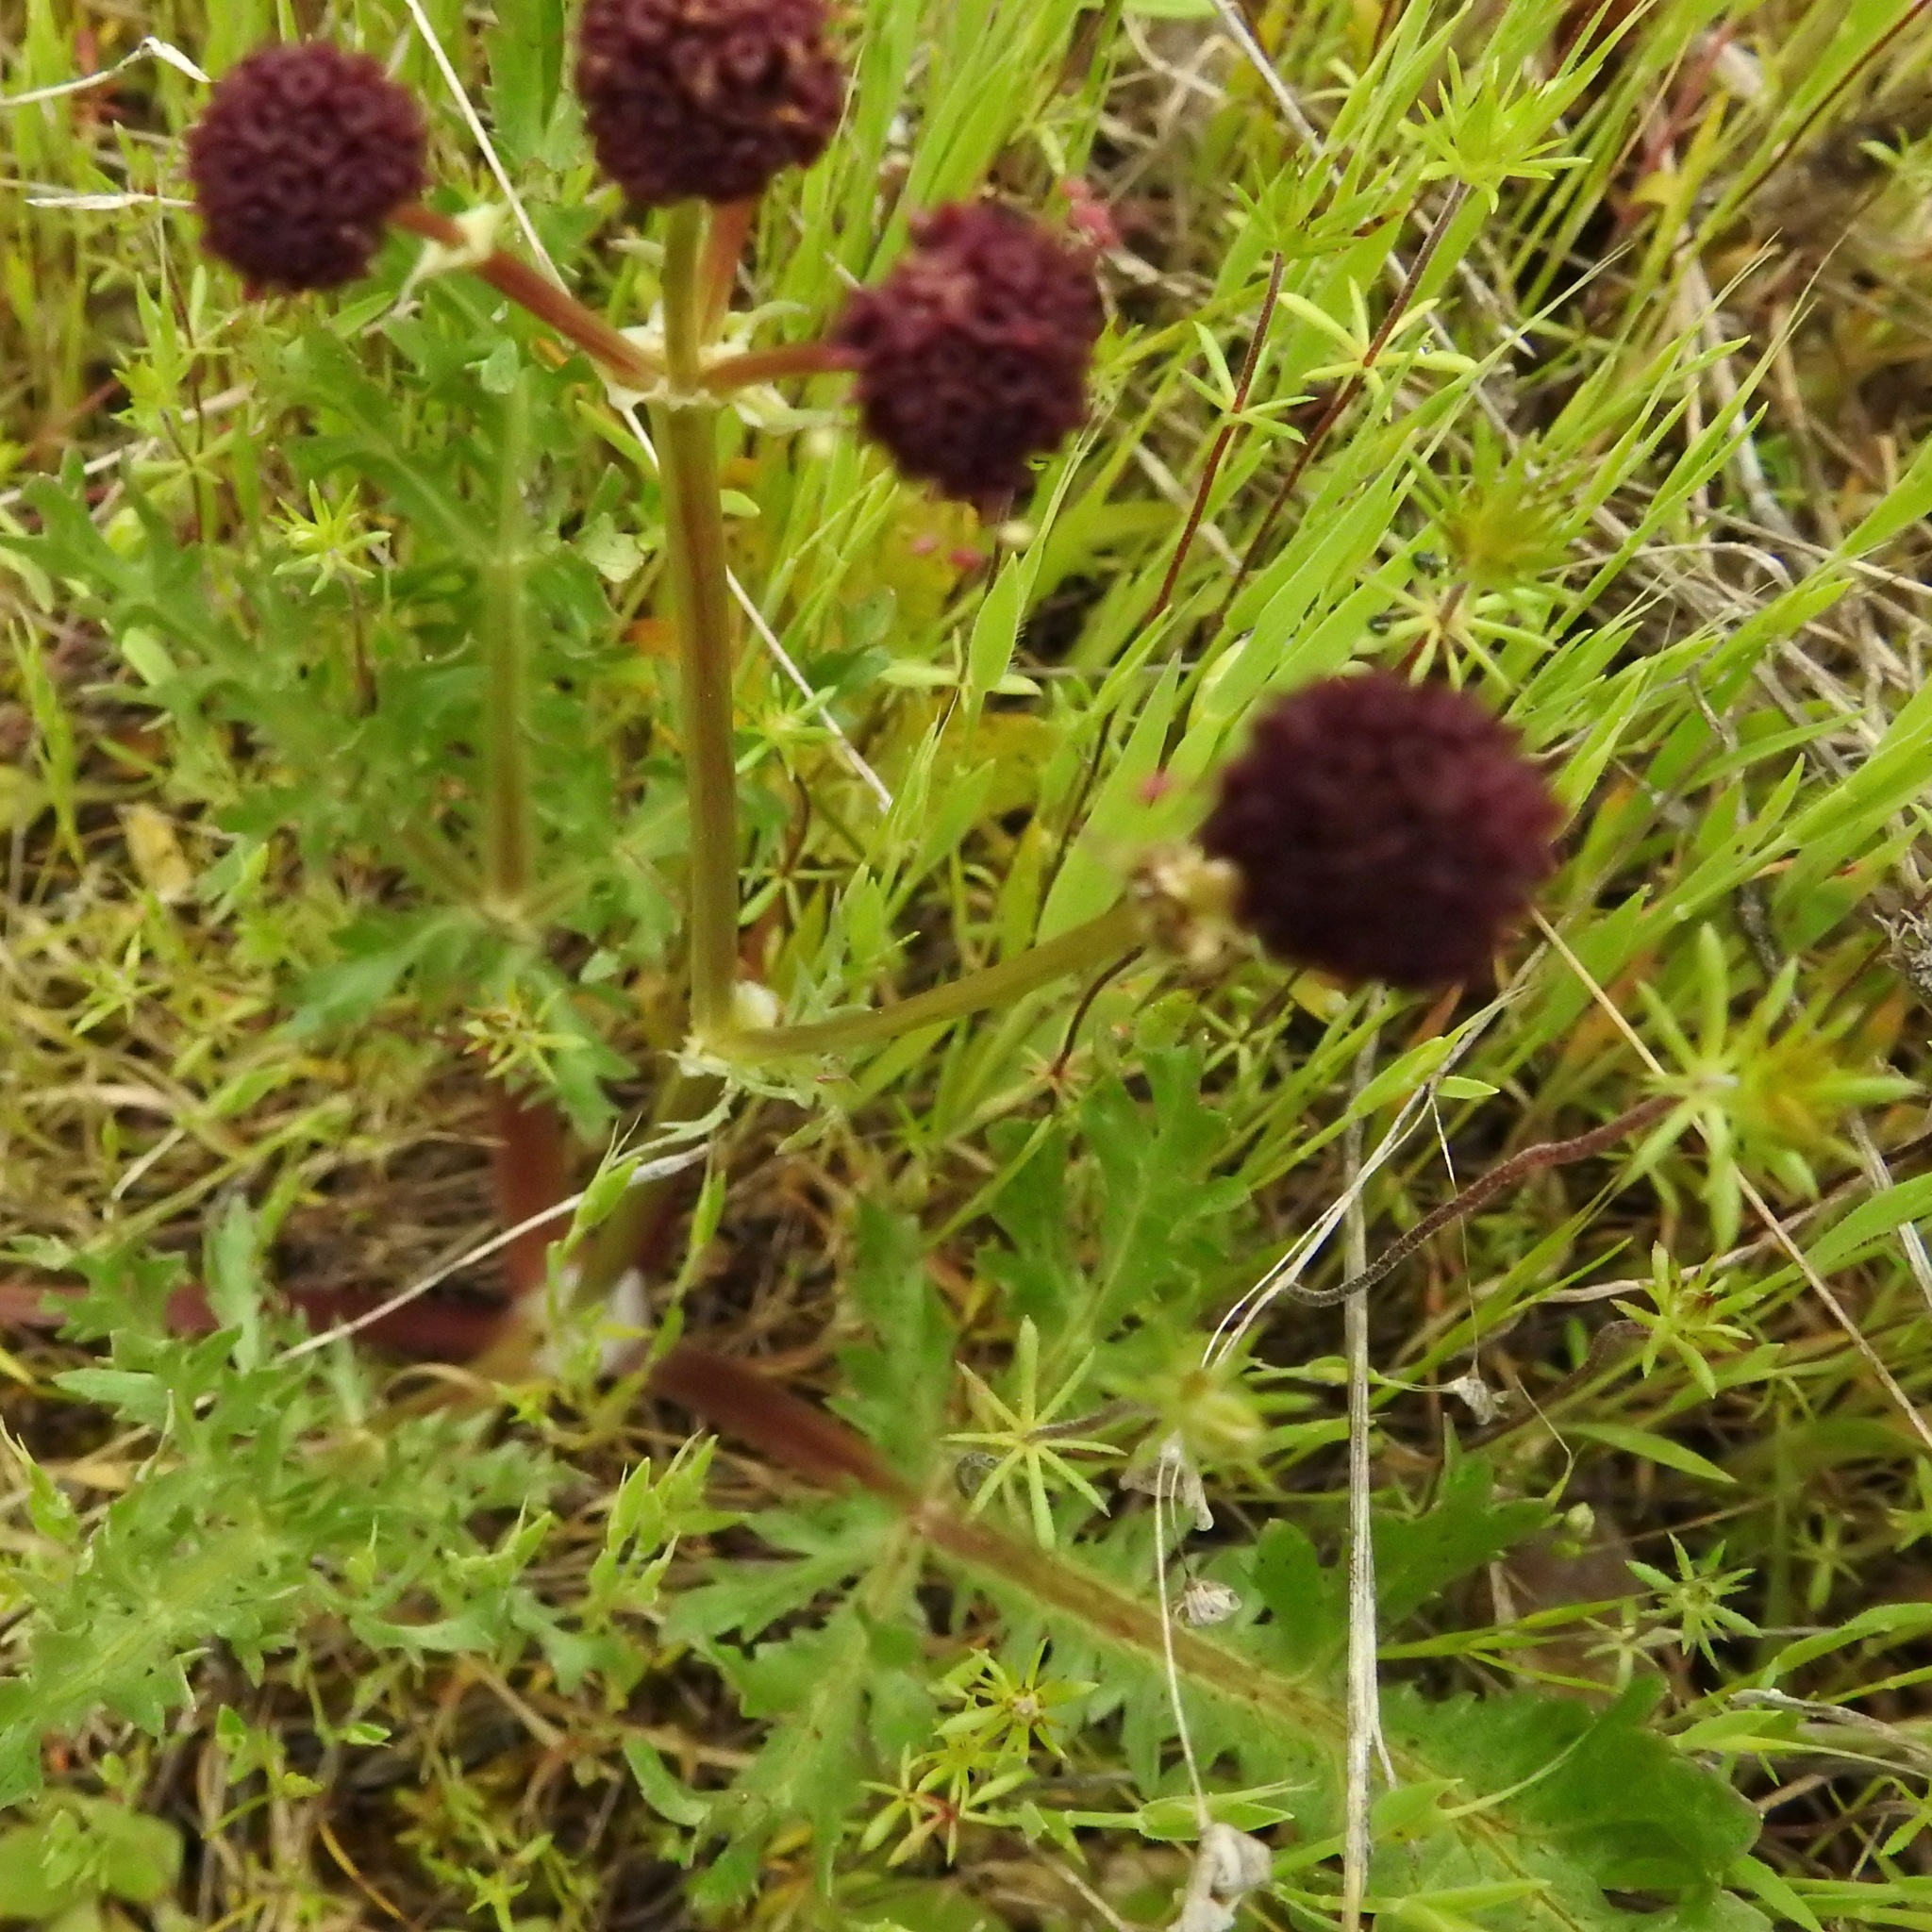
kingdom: Plantae
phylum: Tracheophyta
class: Magnoliopsida
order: Apiales
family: Apiaceae
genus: Sanicula
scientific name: Sanicula bipinnatifida
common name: Shoe-buttons
